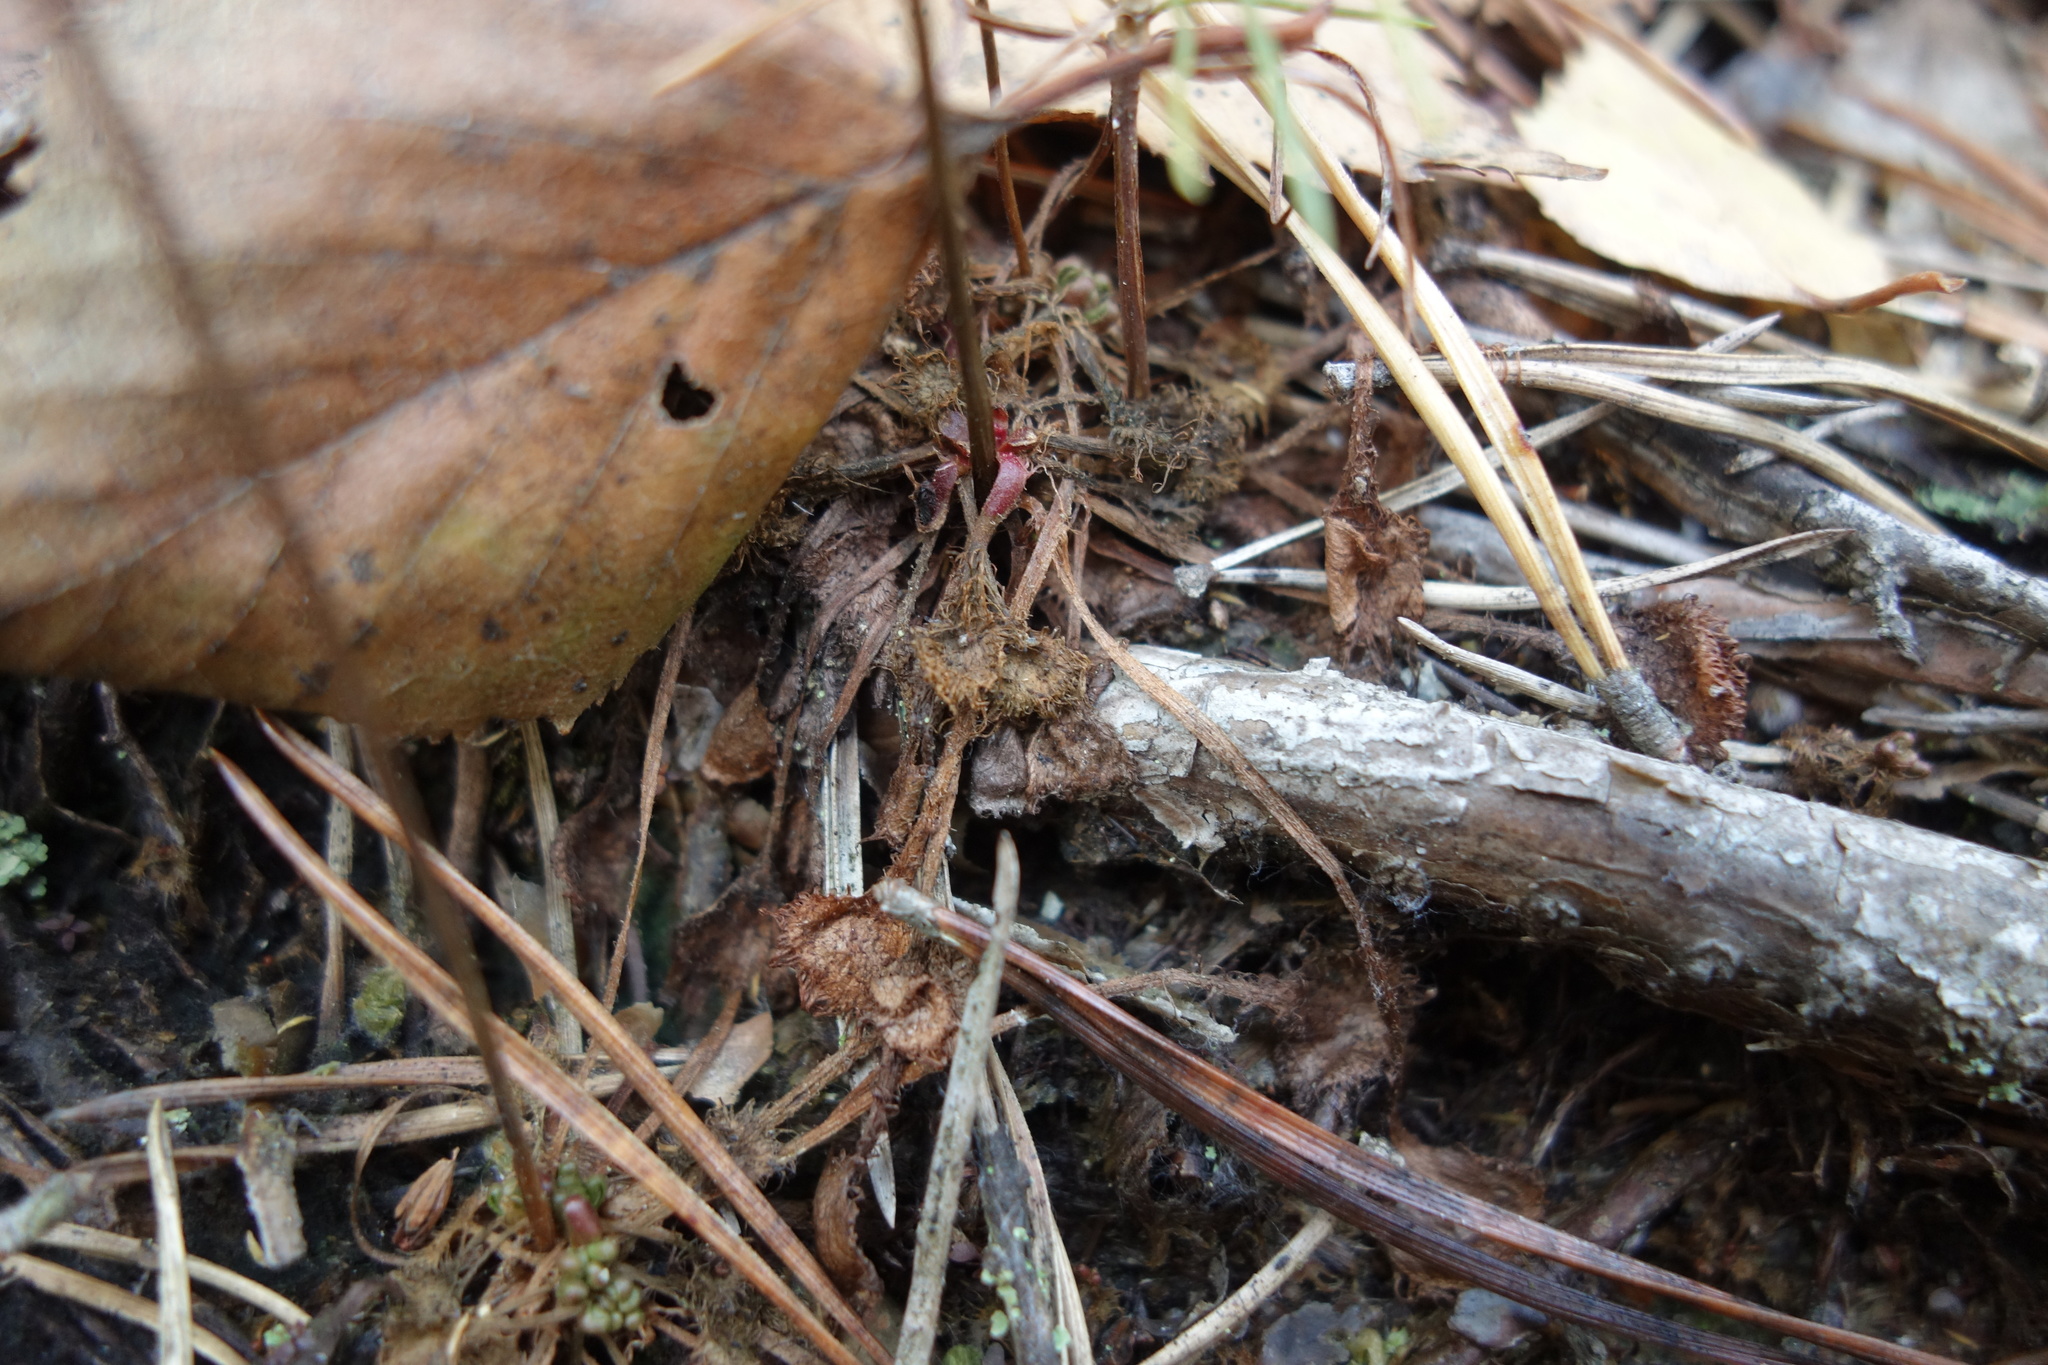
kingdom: Plantae
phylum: Tracheophyta
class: Magnoliopsida
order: Caryophyllales
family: Droseraceae
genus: Drosera
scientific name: Drosera rotundifolia
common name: Round-leaved sundew
